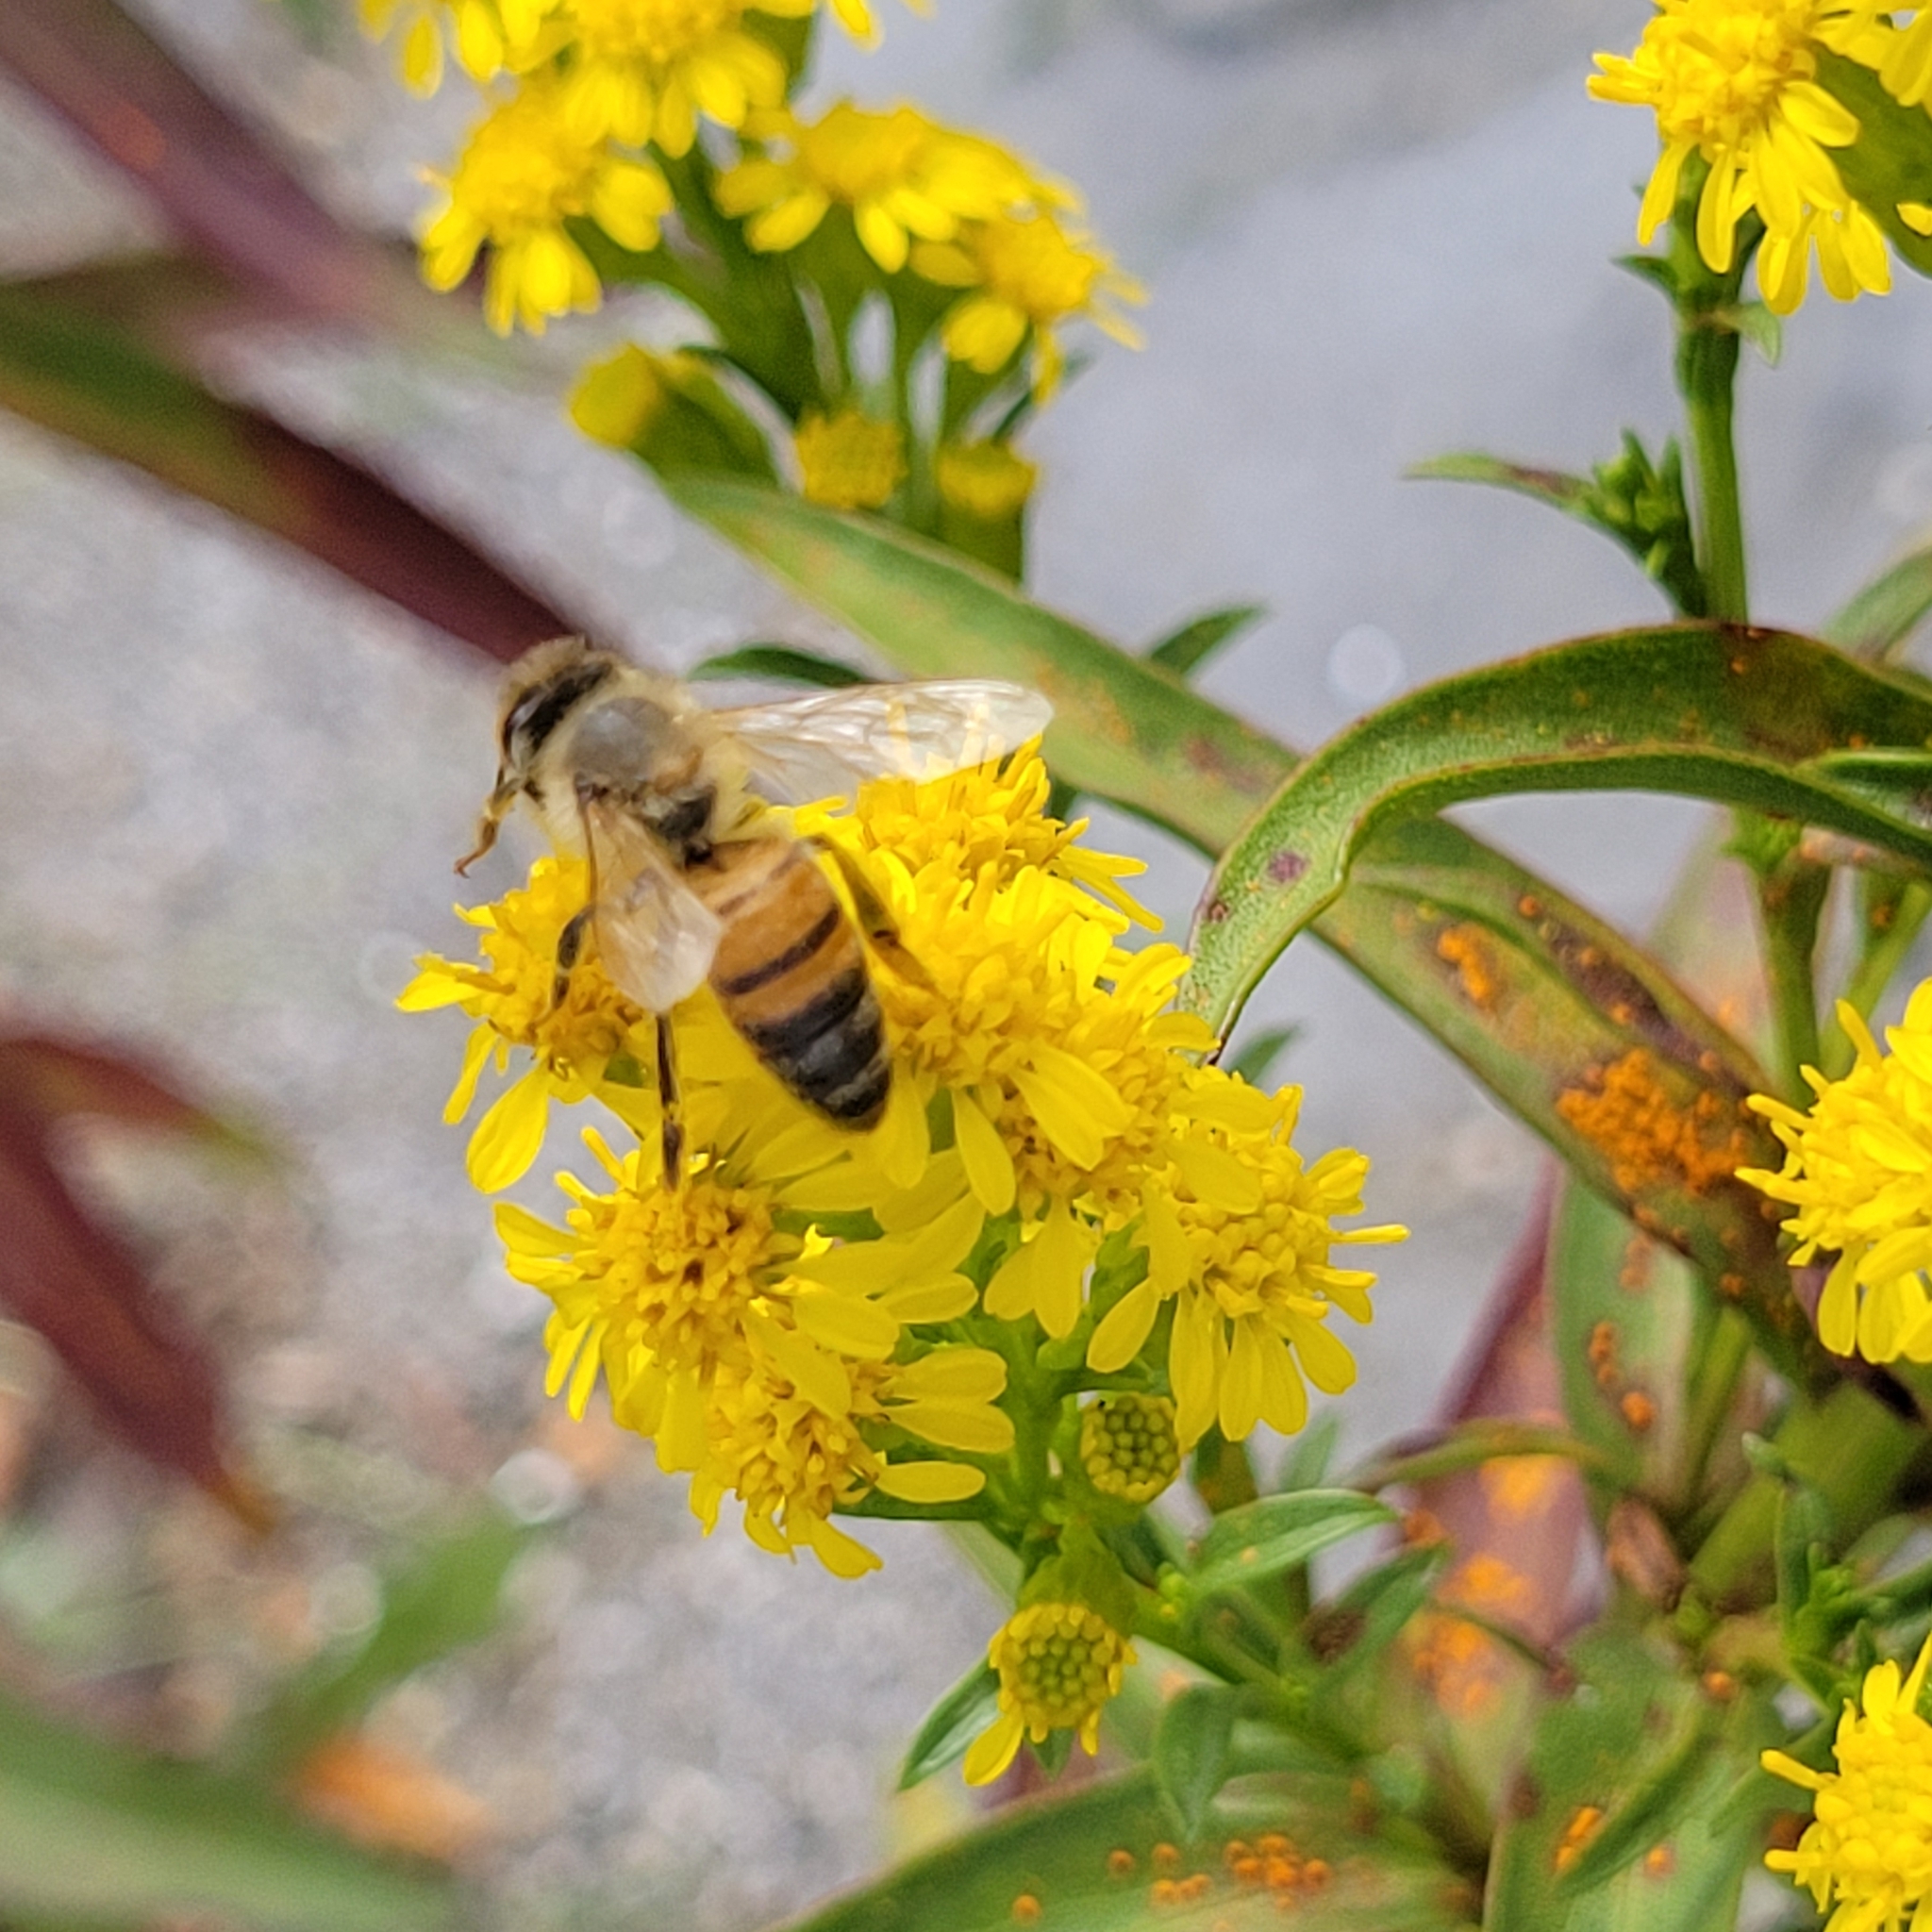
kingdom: Animalia
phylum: Arthropoda
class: Insecta
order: Hymenoptera
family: Apidae
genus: Apis
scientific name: Apis mellifera
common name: Honey bee
